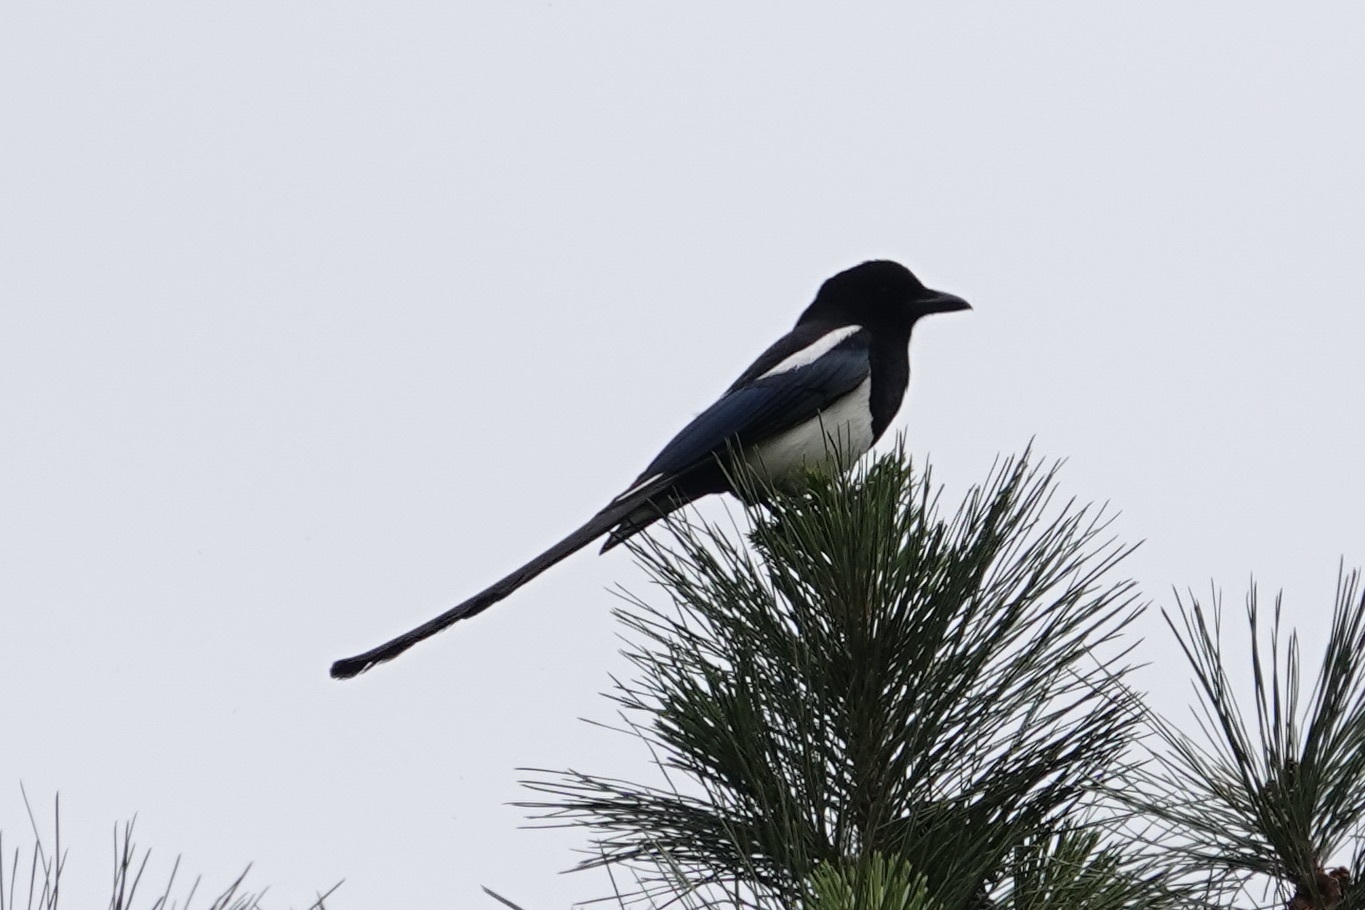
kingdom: Animalia
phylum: Chordata
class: Aves
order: Passeriformes
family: Corvidae
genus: Pica
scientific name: Pica hudsonia
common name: Black-billed magpie
